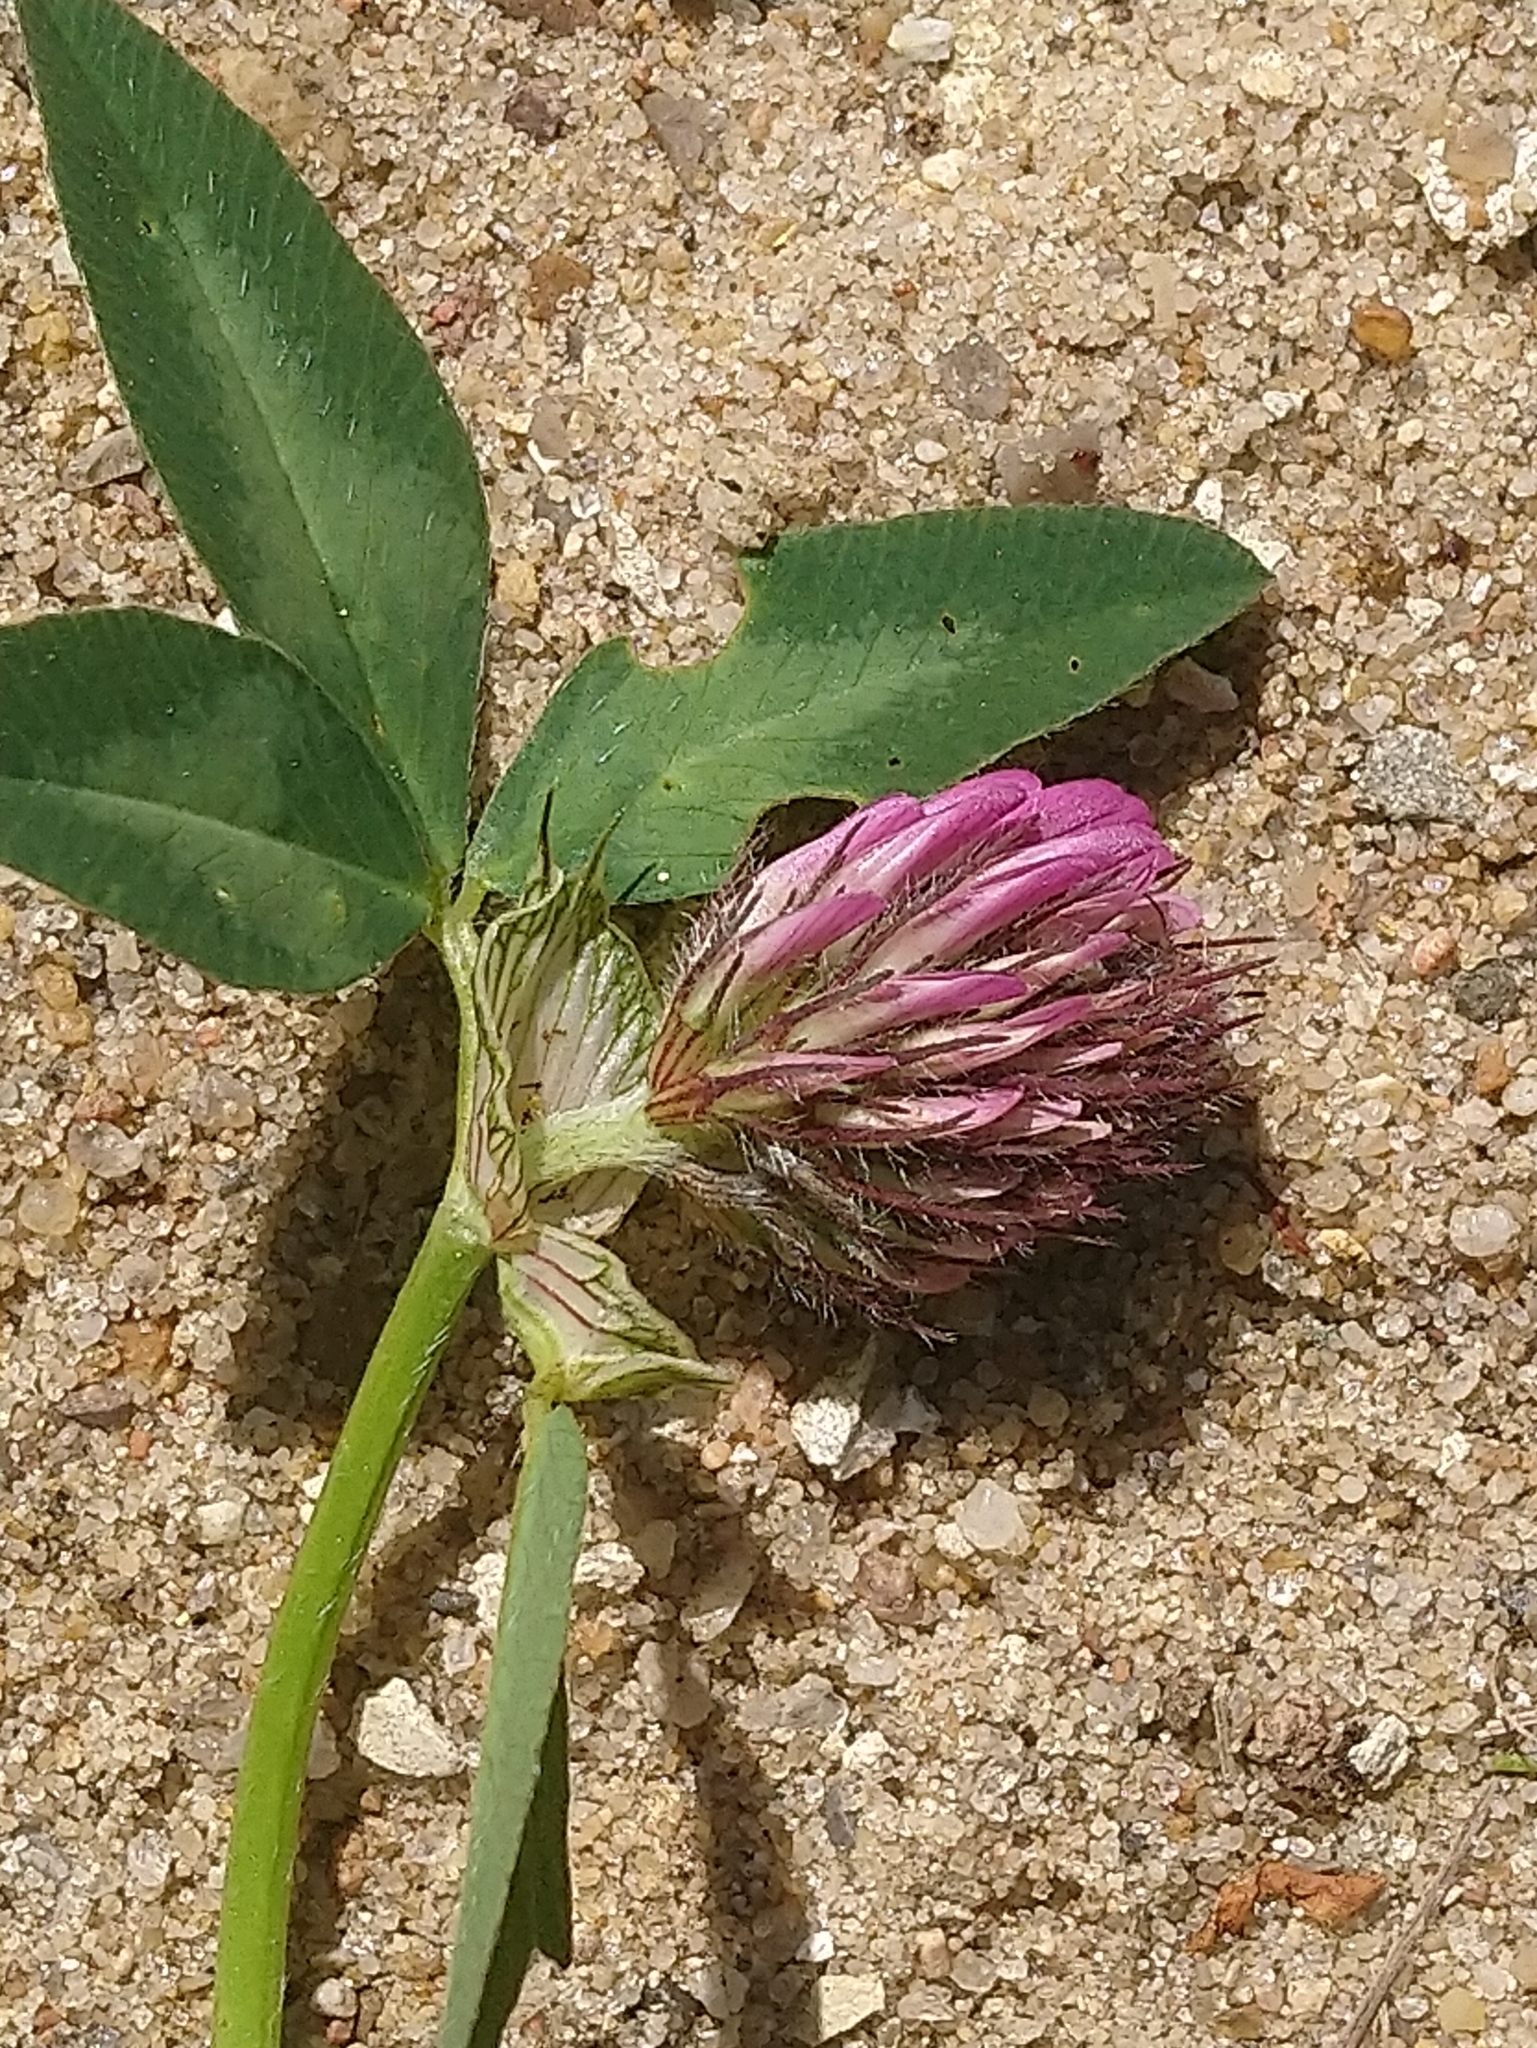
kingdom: Plantae
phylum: Tracheophyta
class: Magnoliopsida
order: Fabales
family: Fabaceae
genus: Trifolium
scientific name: Trifolium pratense
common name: Red clover
